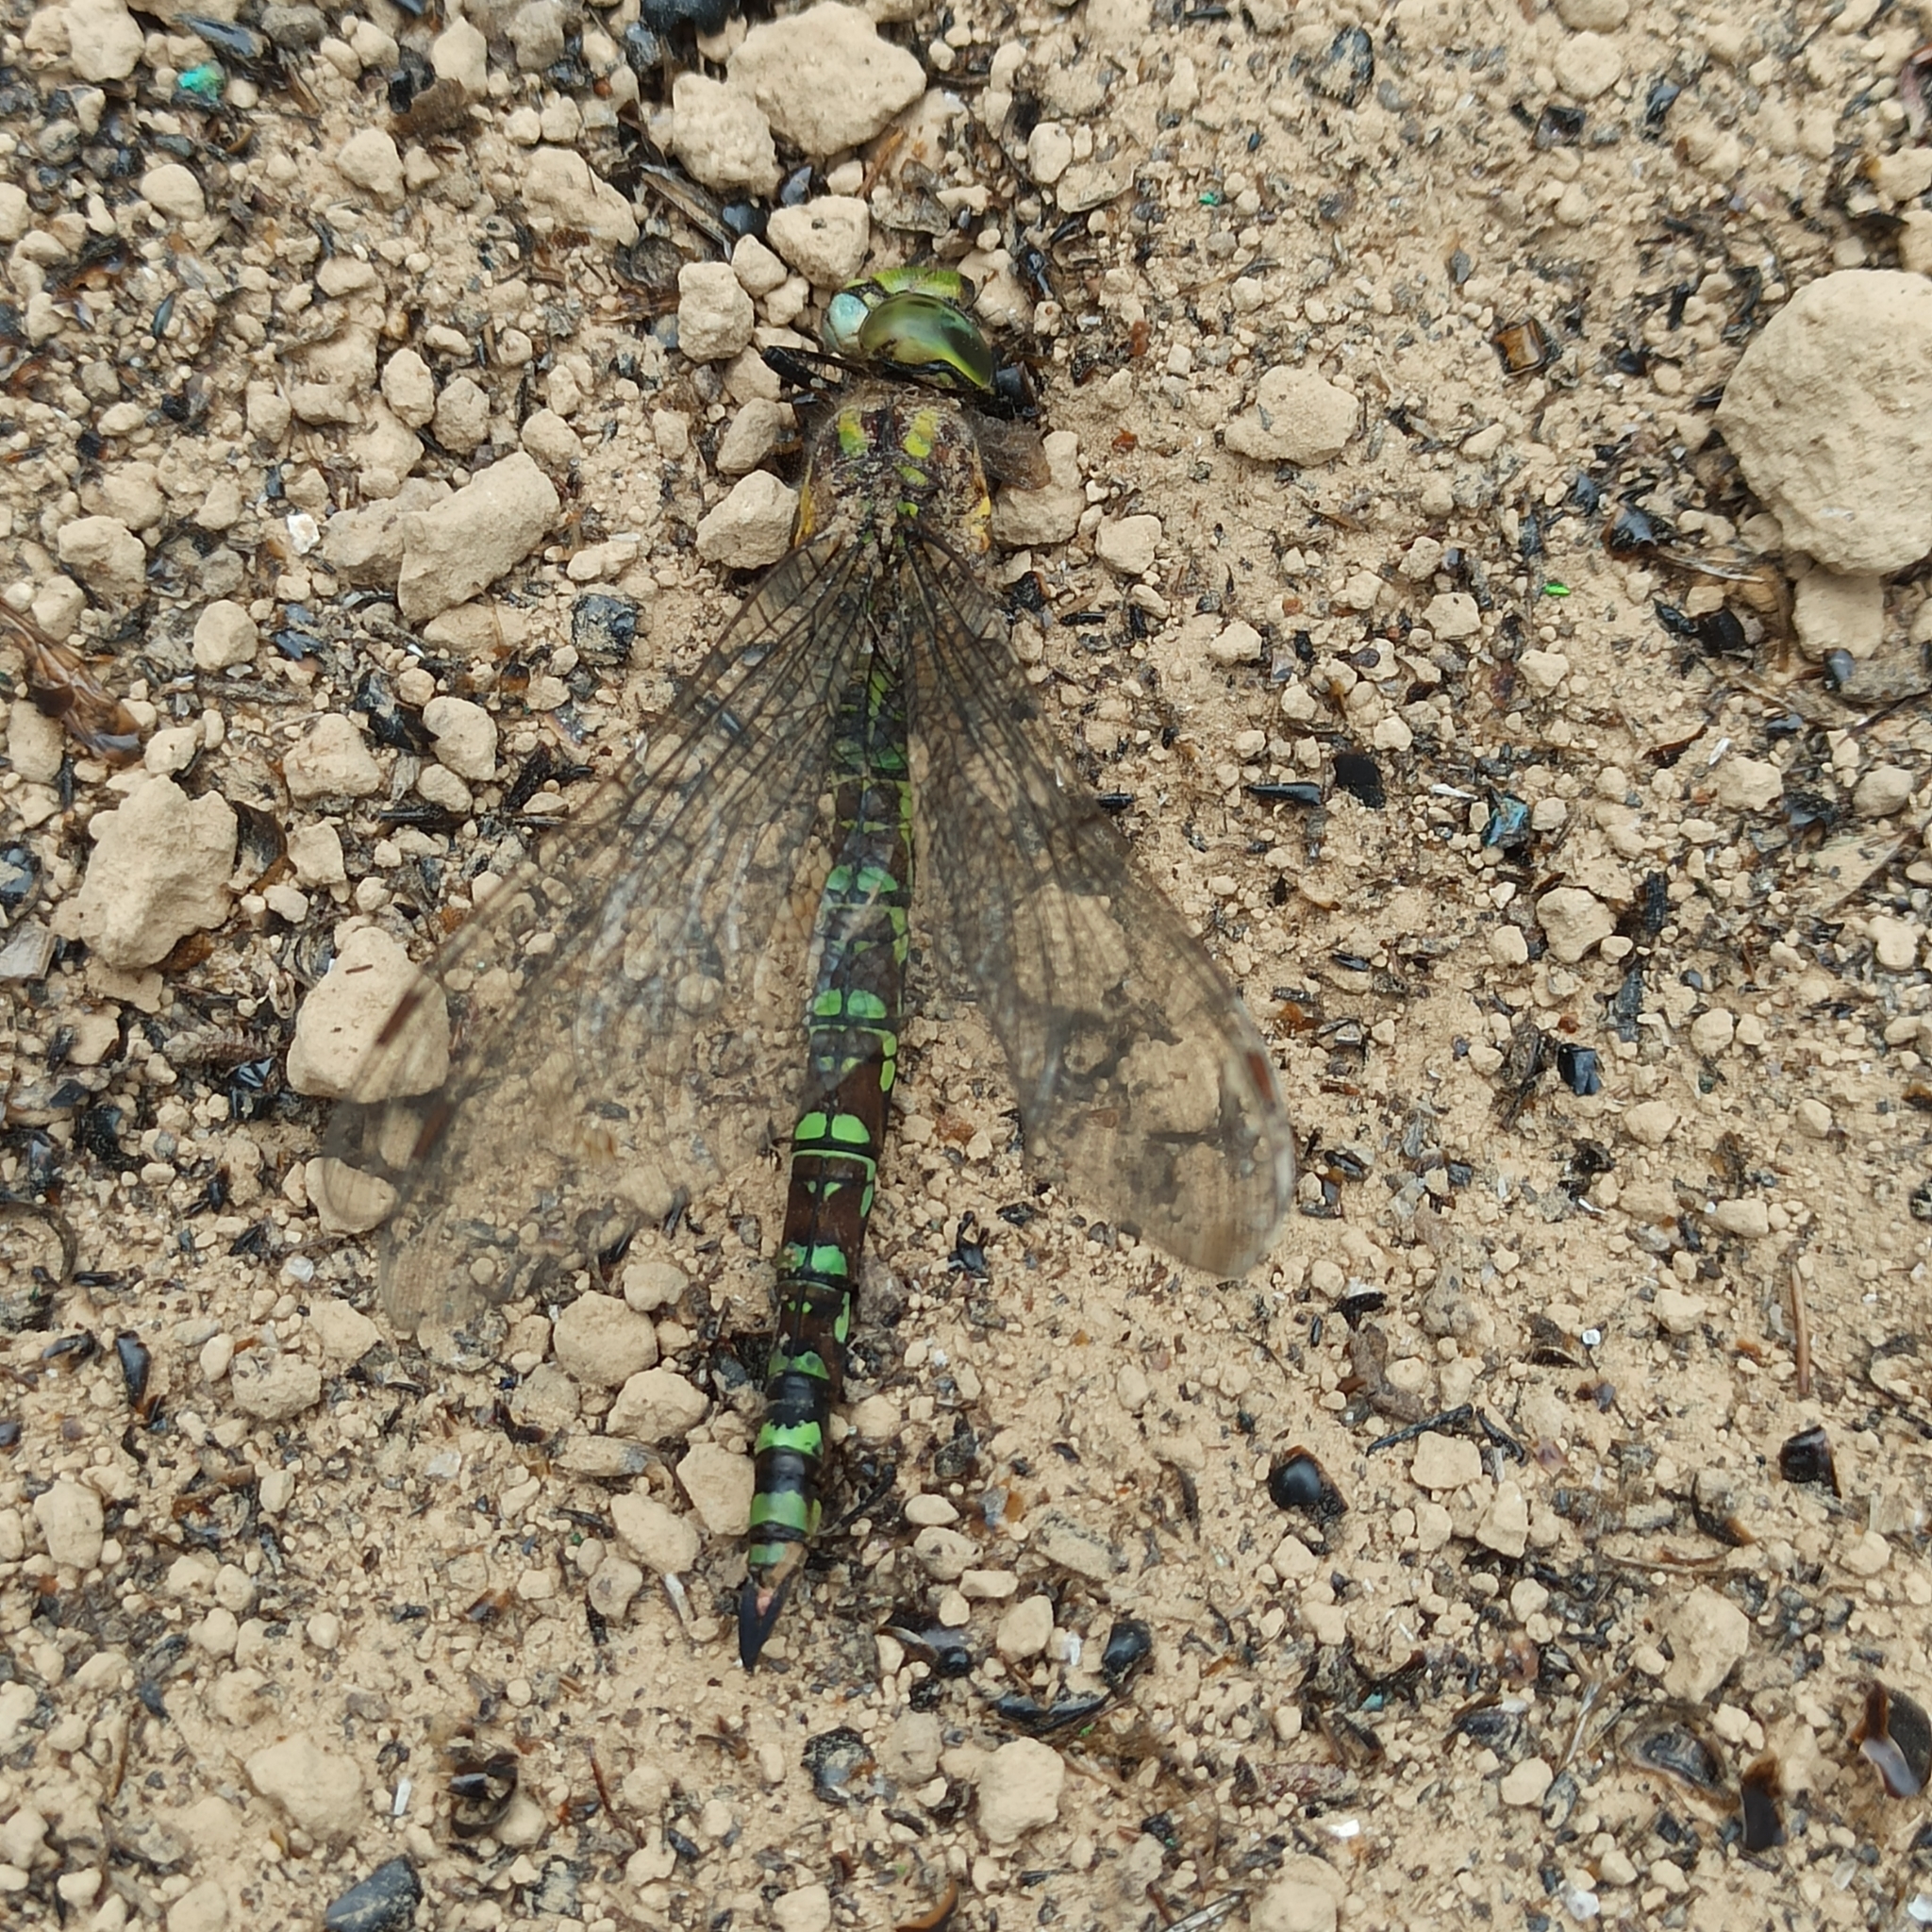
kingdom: Animalia
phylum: Arthropoda
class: Insecta
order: Odonata
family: Aeshnidae
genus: Aeshna
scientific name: Aeshna cyanea
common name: Southern hawker
